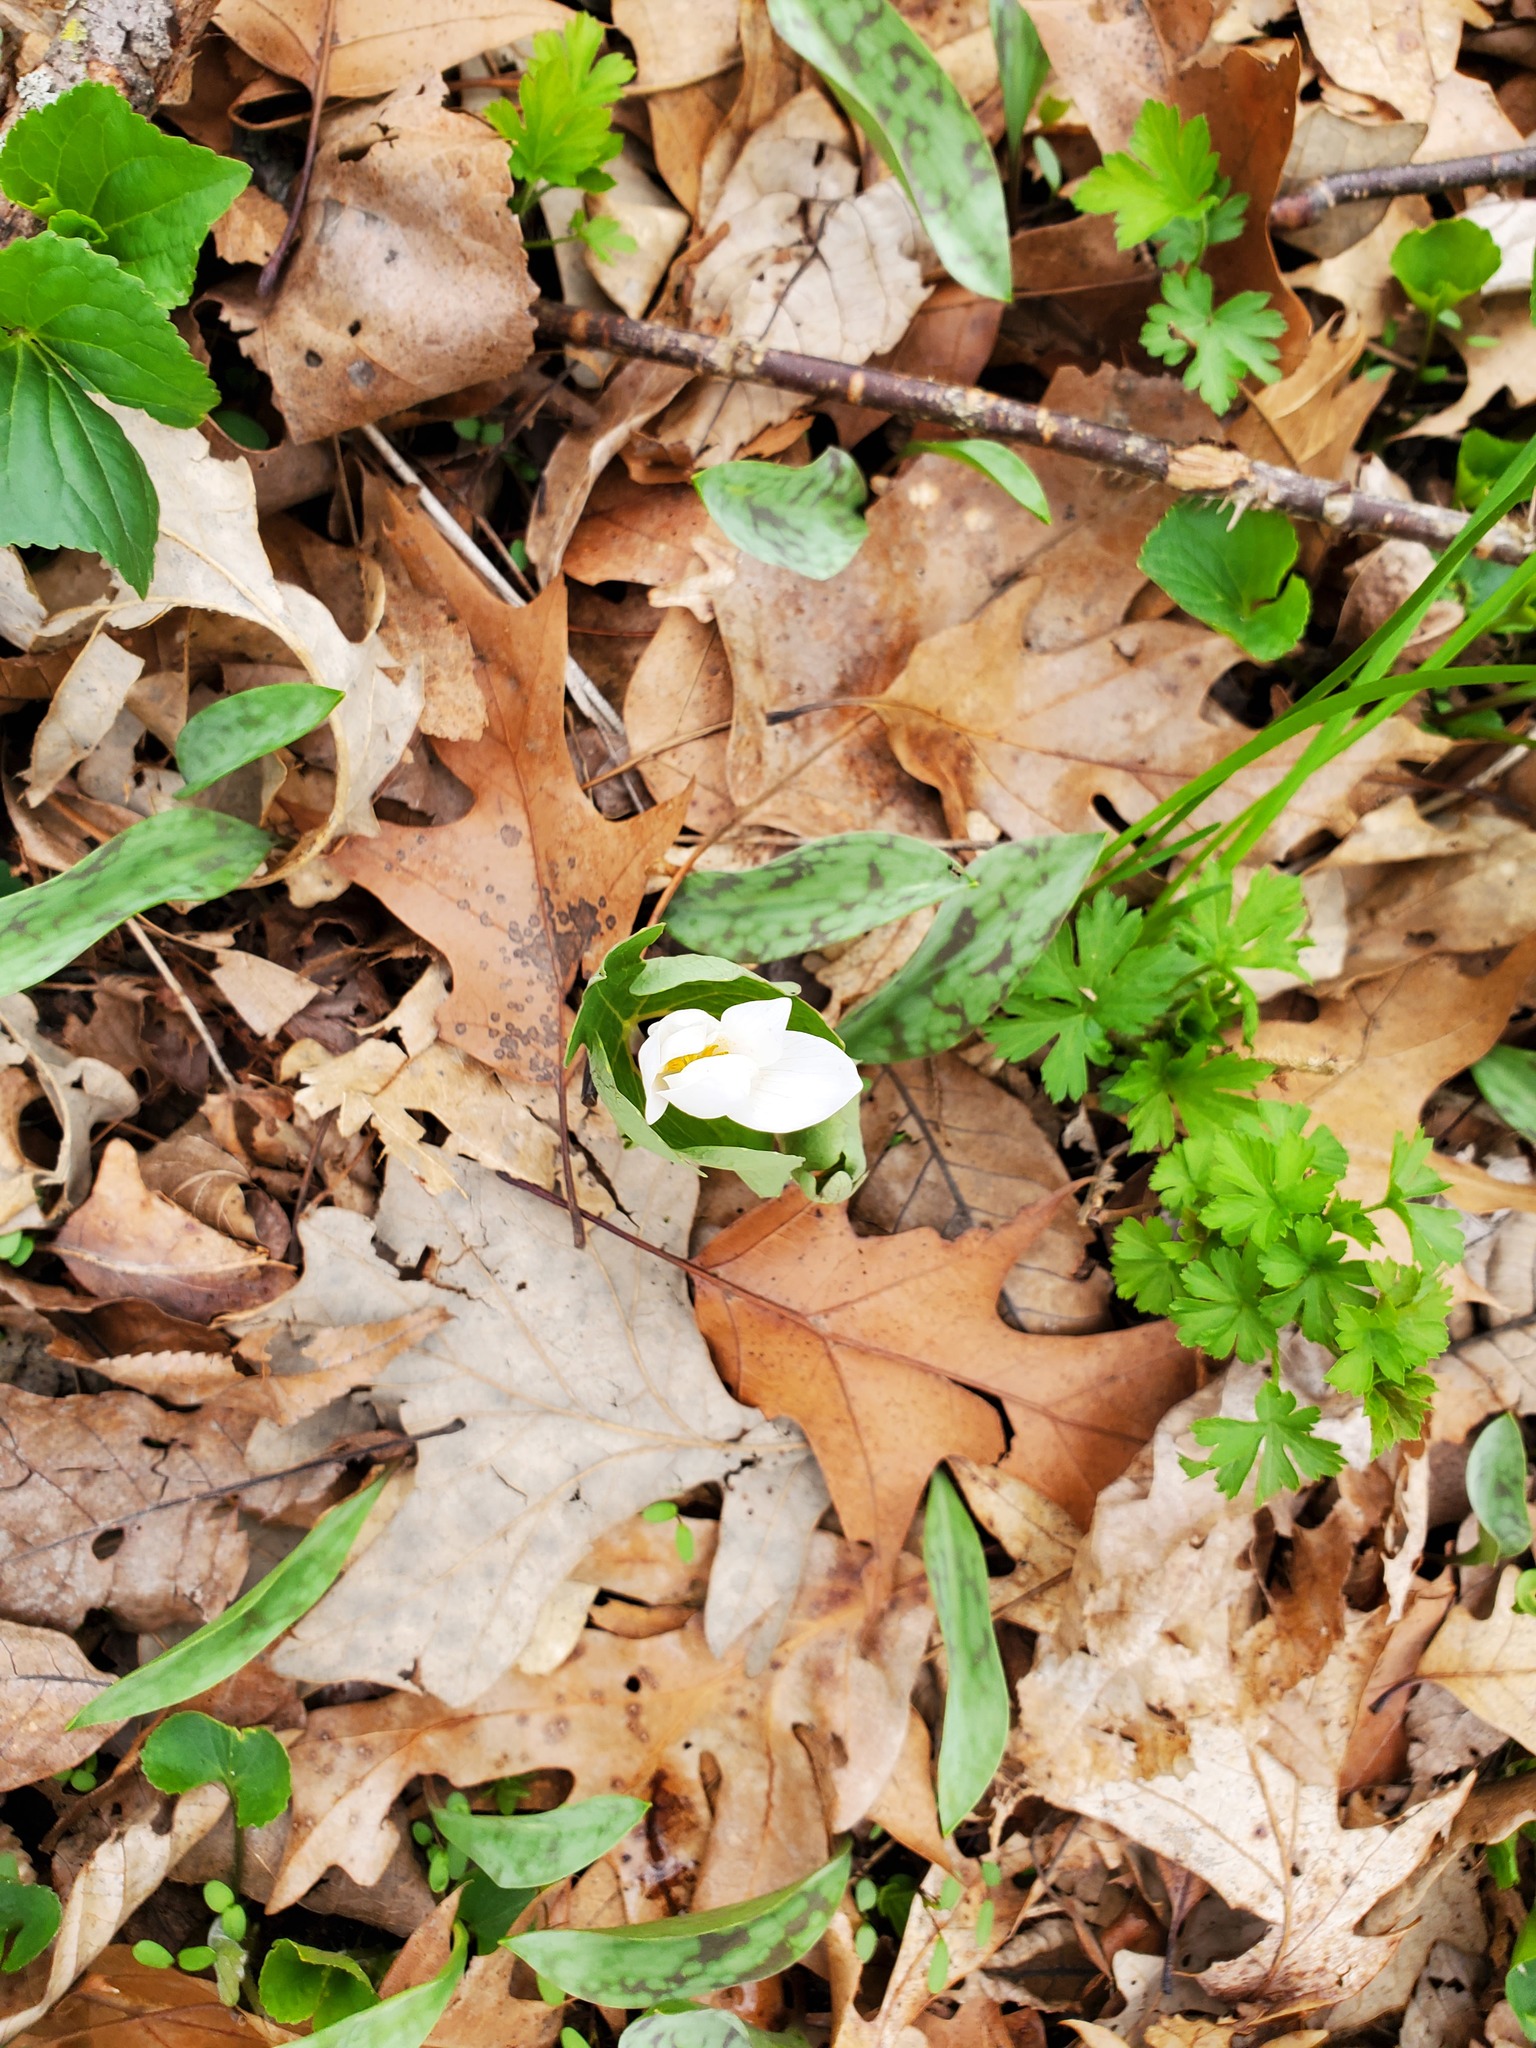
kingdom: Plantae
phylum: Tracheophyta
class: Magnoliopsida
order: Ranunculales
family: Papaveraceae
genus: Sanguinaria
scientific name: Sanguinaria canadensis
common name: Bloodroot
